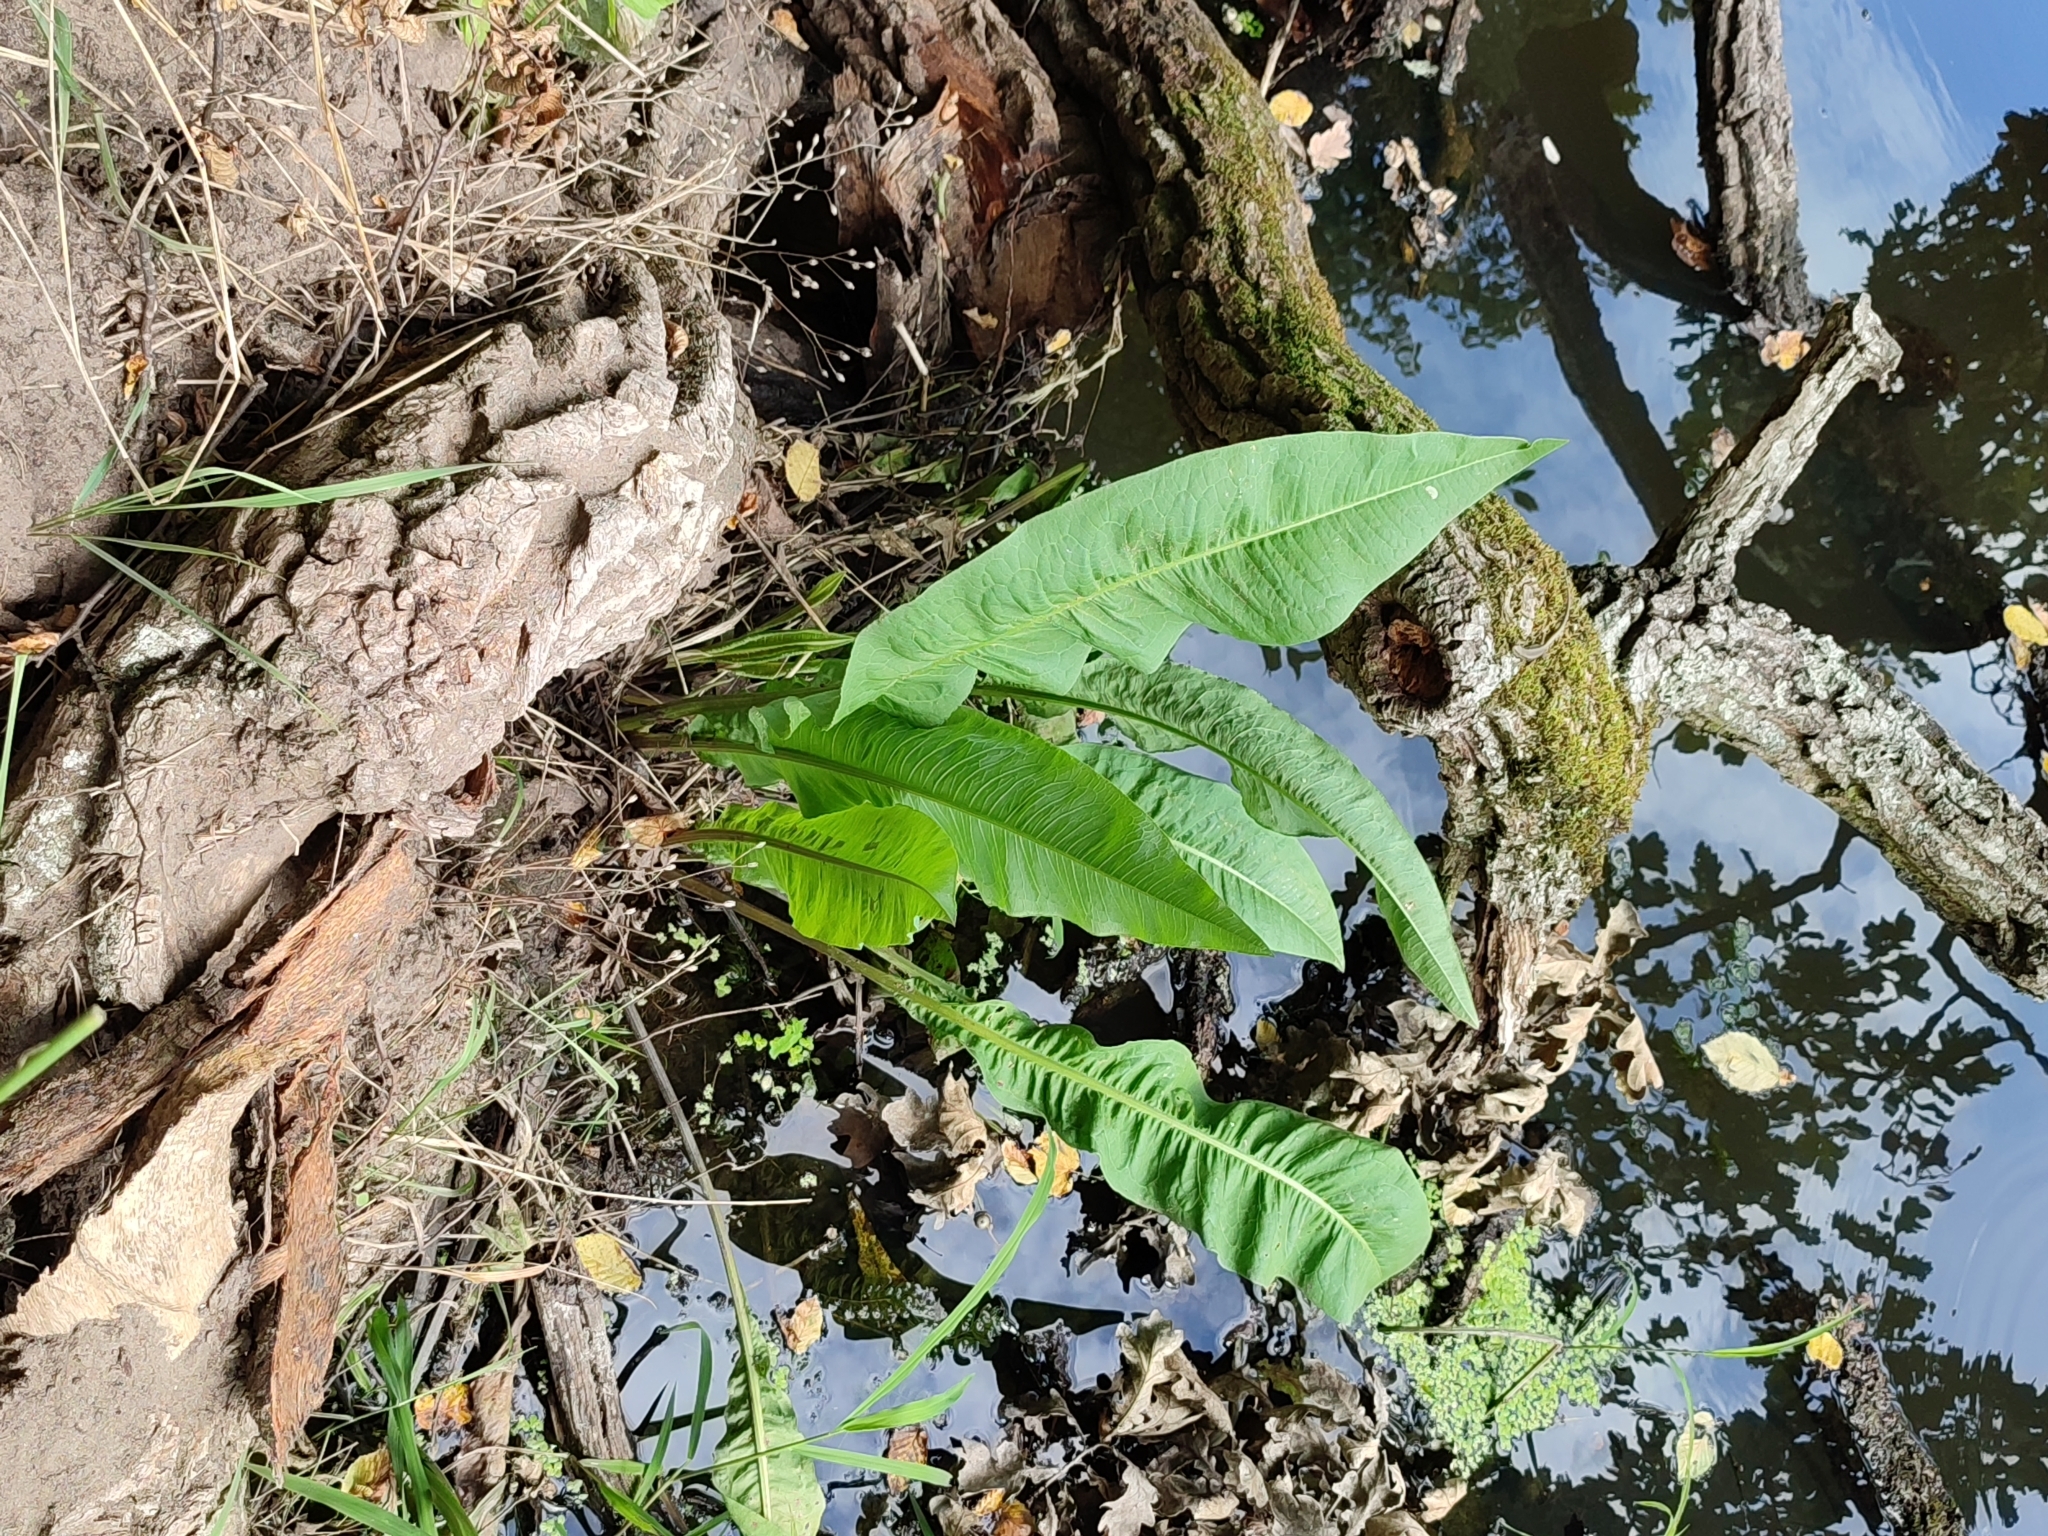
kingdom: Plantae
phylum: Tracheophyta
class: Magnoliopsida
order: Caryophyllales
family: Polygonaceae
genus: Rumex
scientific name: Rumex hydrolapathum
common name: Water dock
